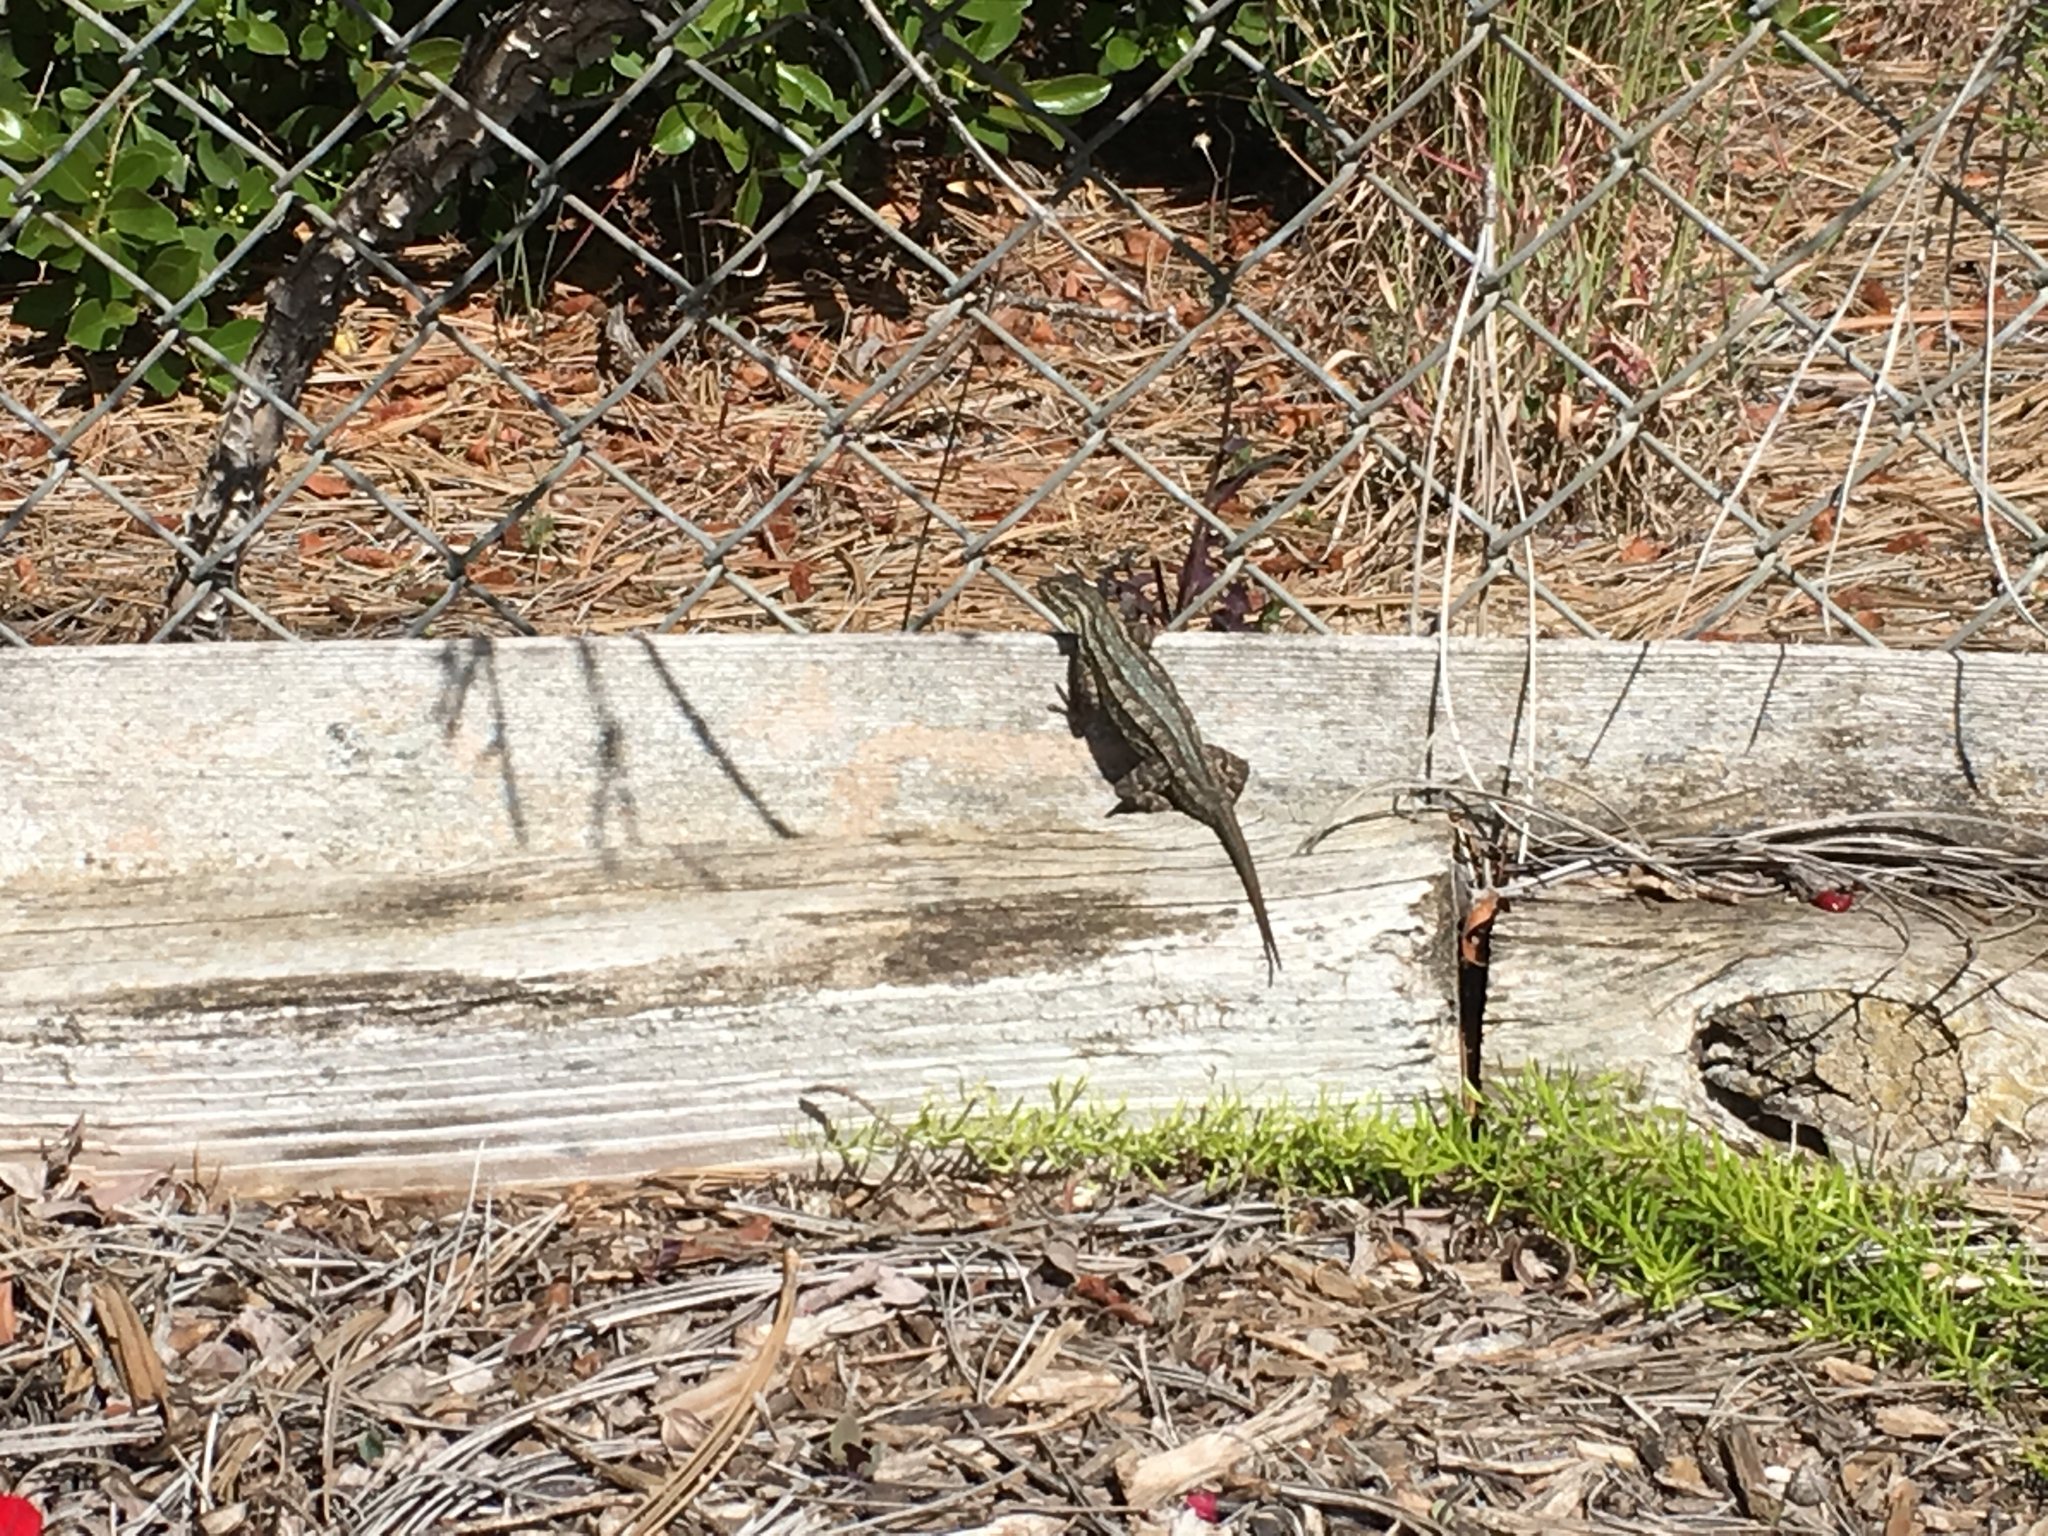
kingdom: Animalia
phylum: Chordata
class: Squamata
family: Phrynosomatidae
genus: Sceloporus
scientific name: Sceloporus occidentalis
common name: Western fence lizard
